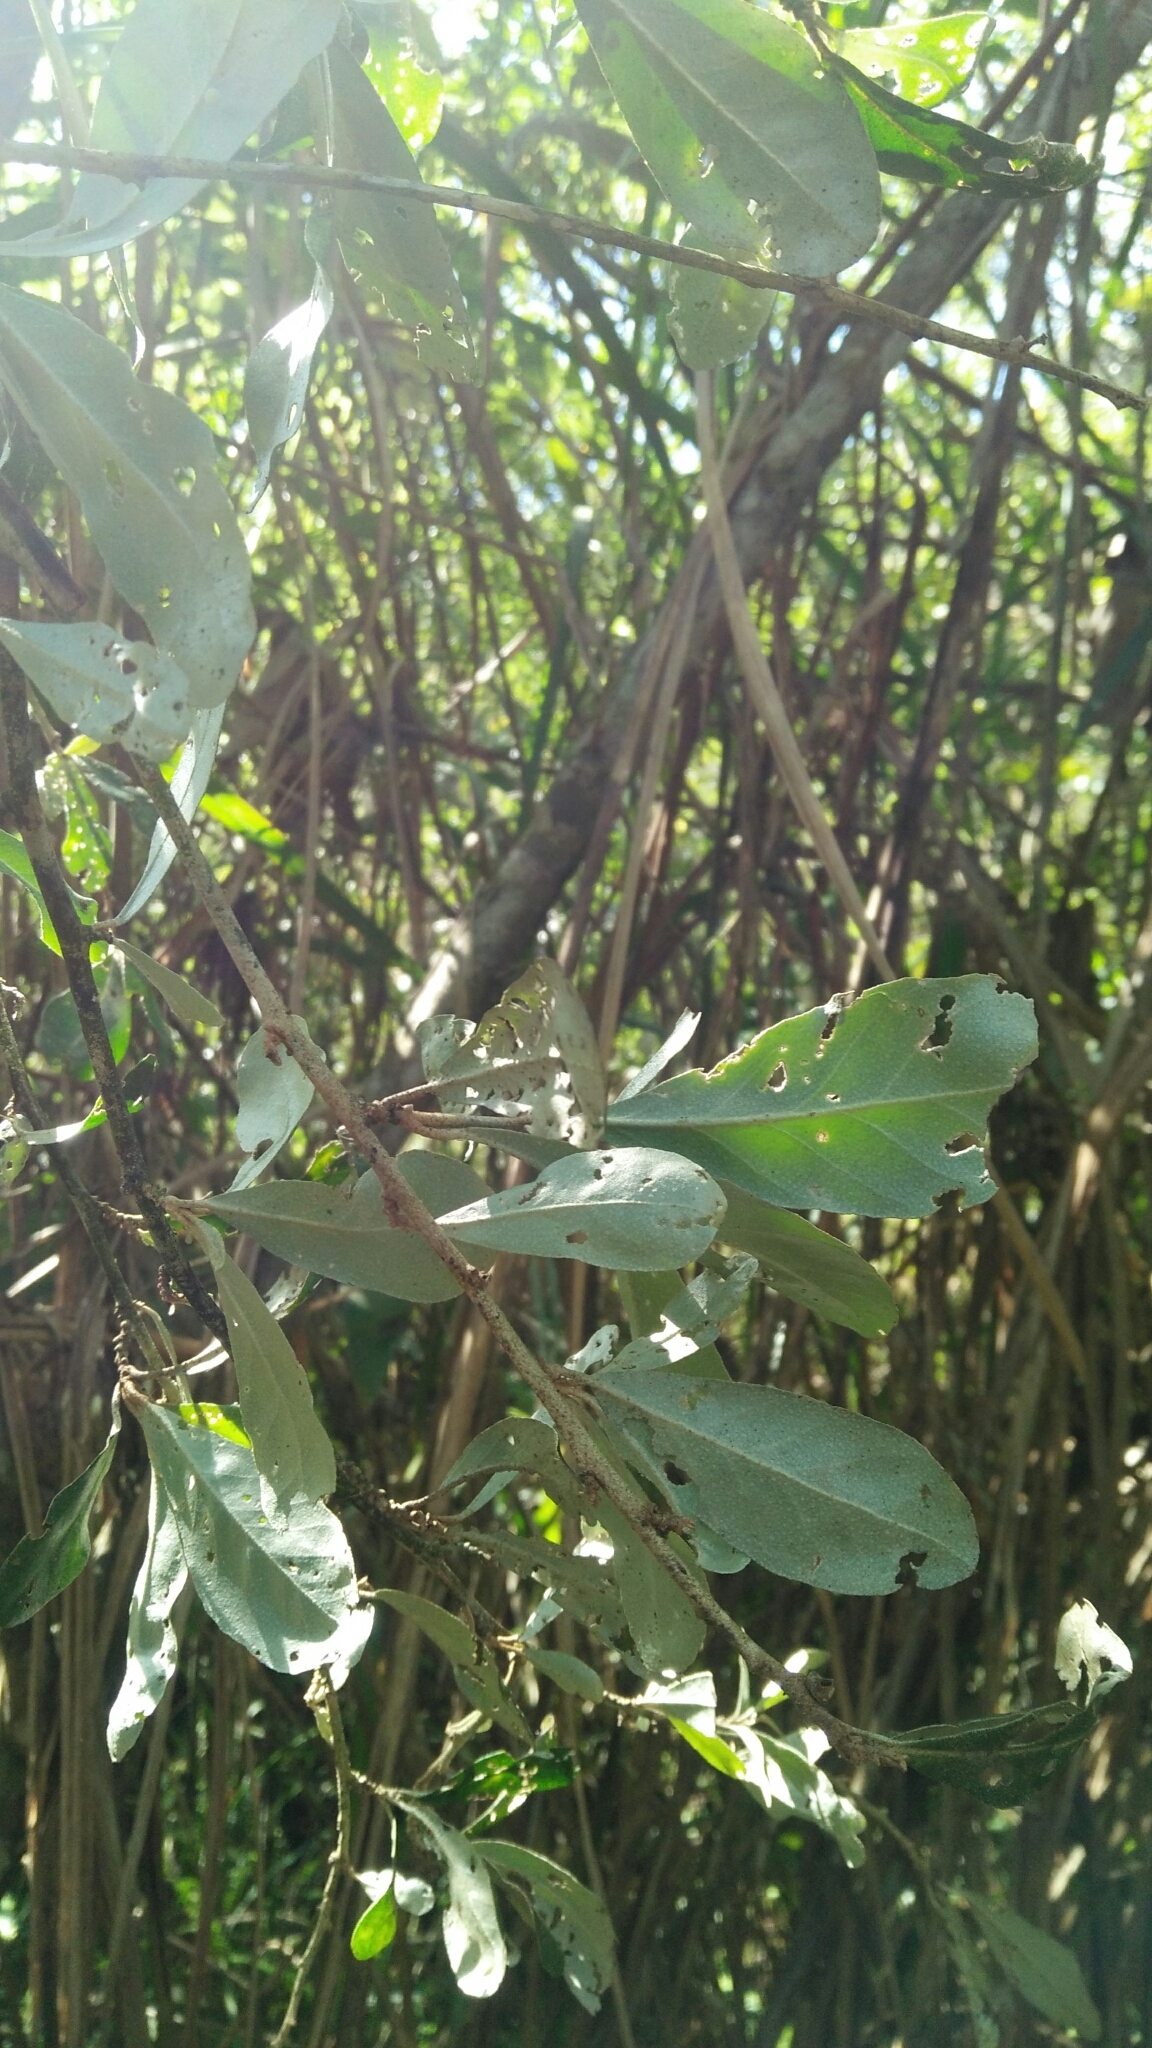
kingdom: Plantae
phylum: Tracheophyta
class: Magnoliopsida
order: Rosales
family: Elaeagnaceae
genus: Elaeagnus
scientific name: Elaeagnus oldhamii
